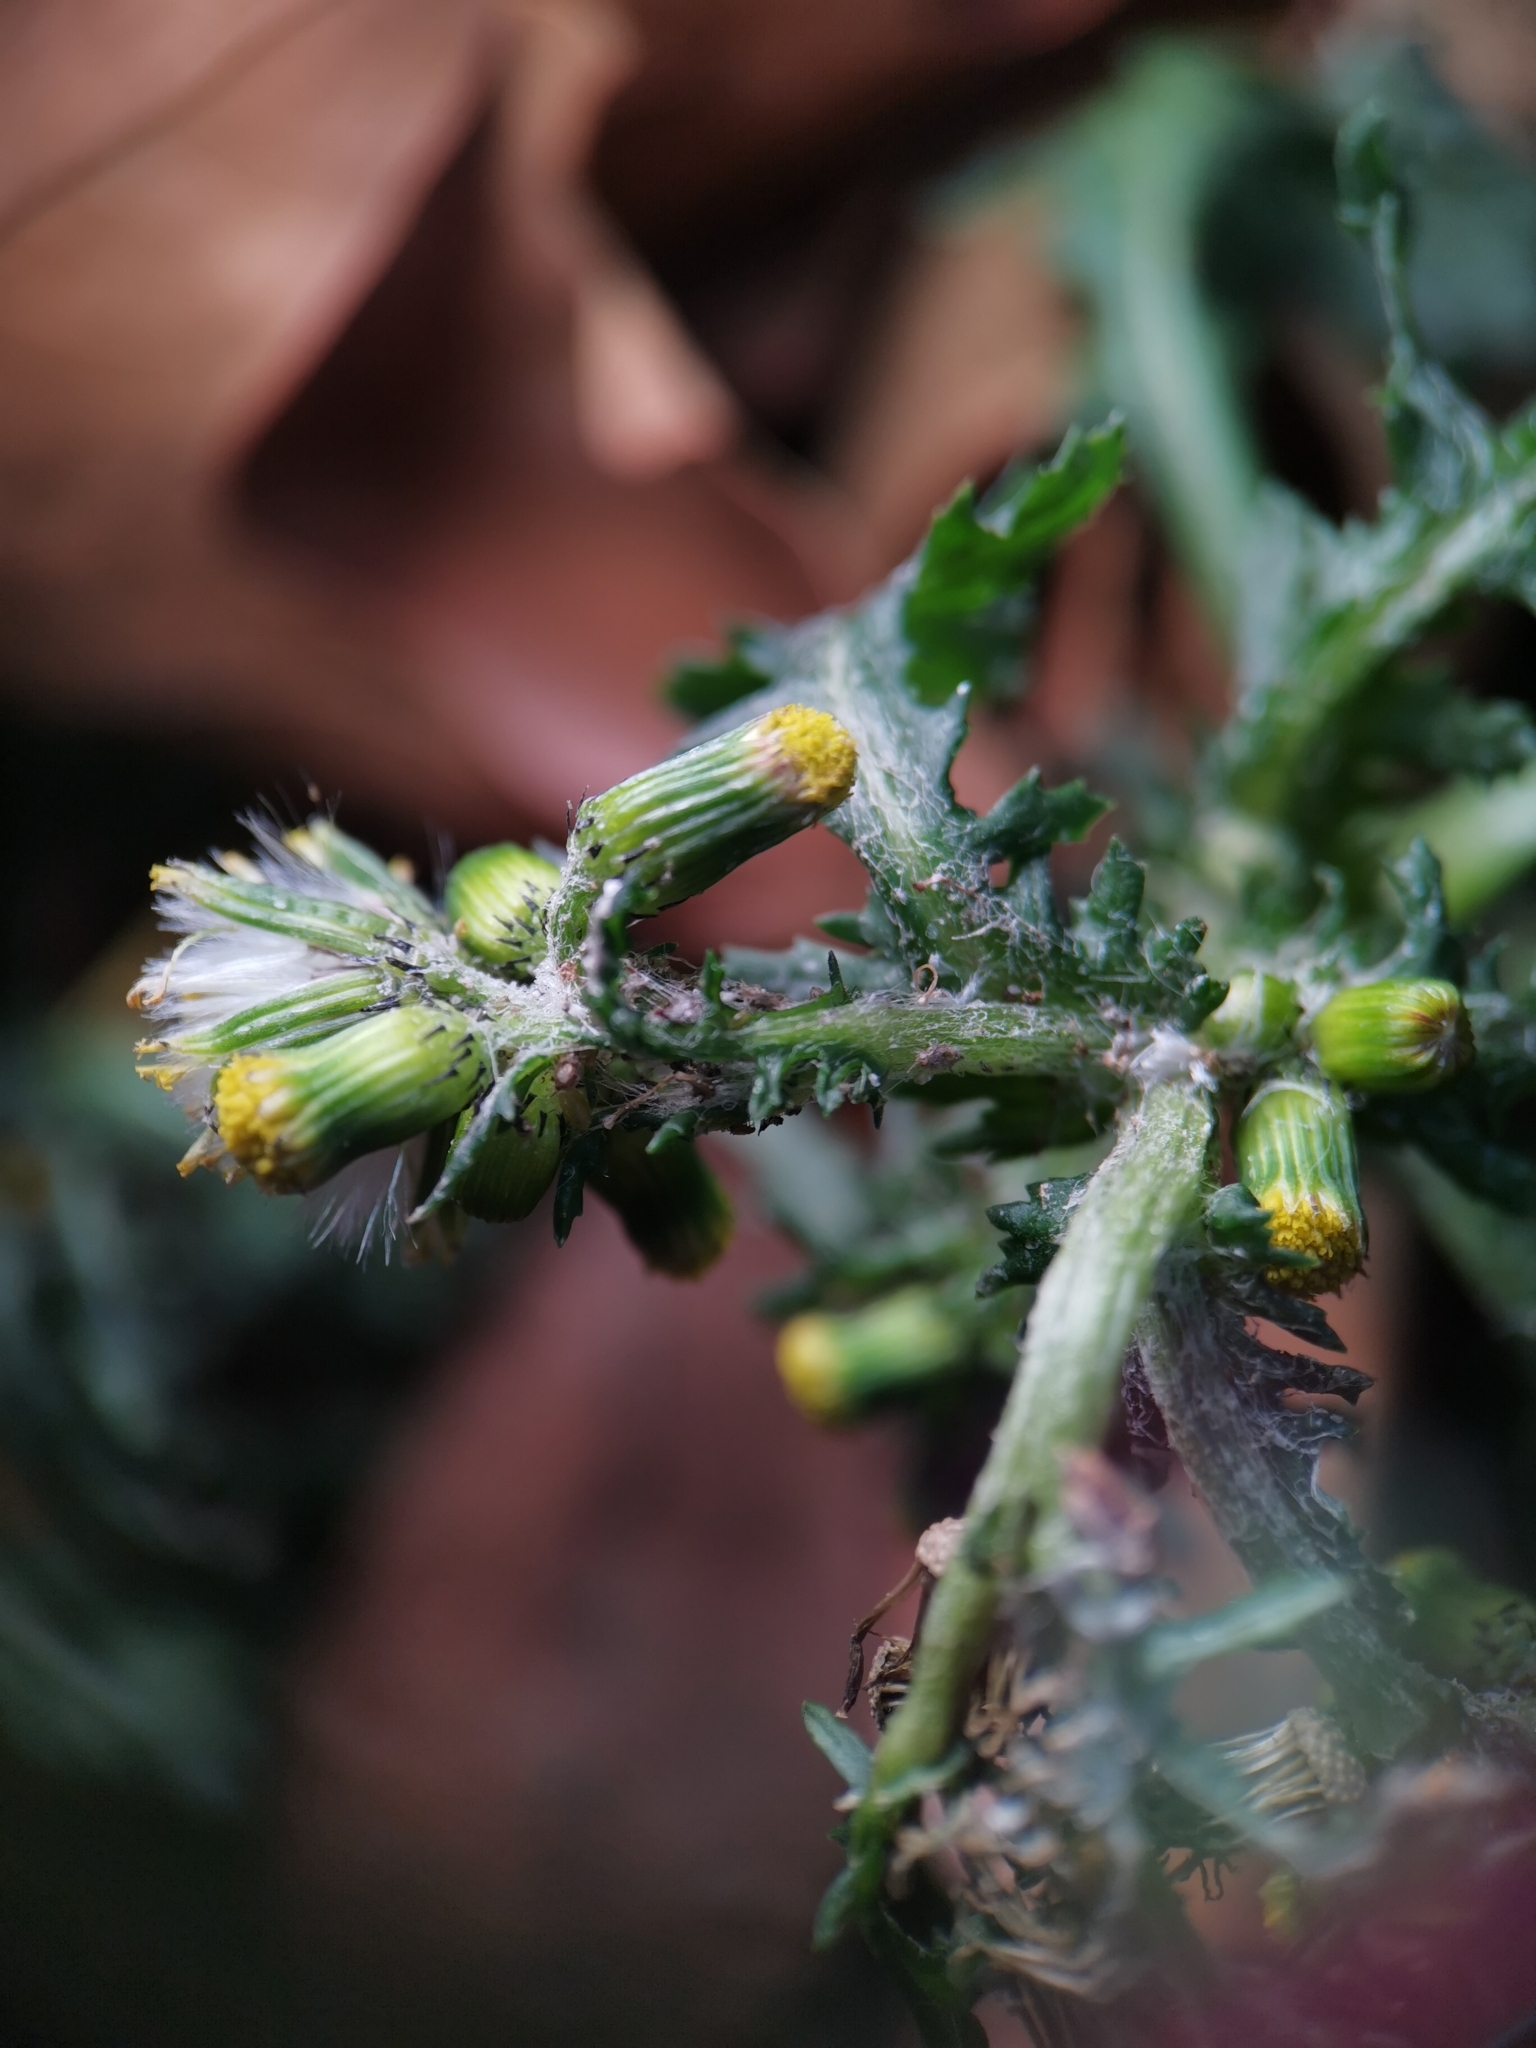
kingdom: Plantae
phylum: Tracheophyta
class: Magnoliopsida
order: Asterales
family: Asteraceae
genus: Senecio
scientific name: Senecio vulgaris
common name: Old-man-in-the-spring
